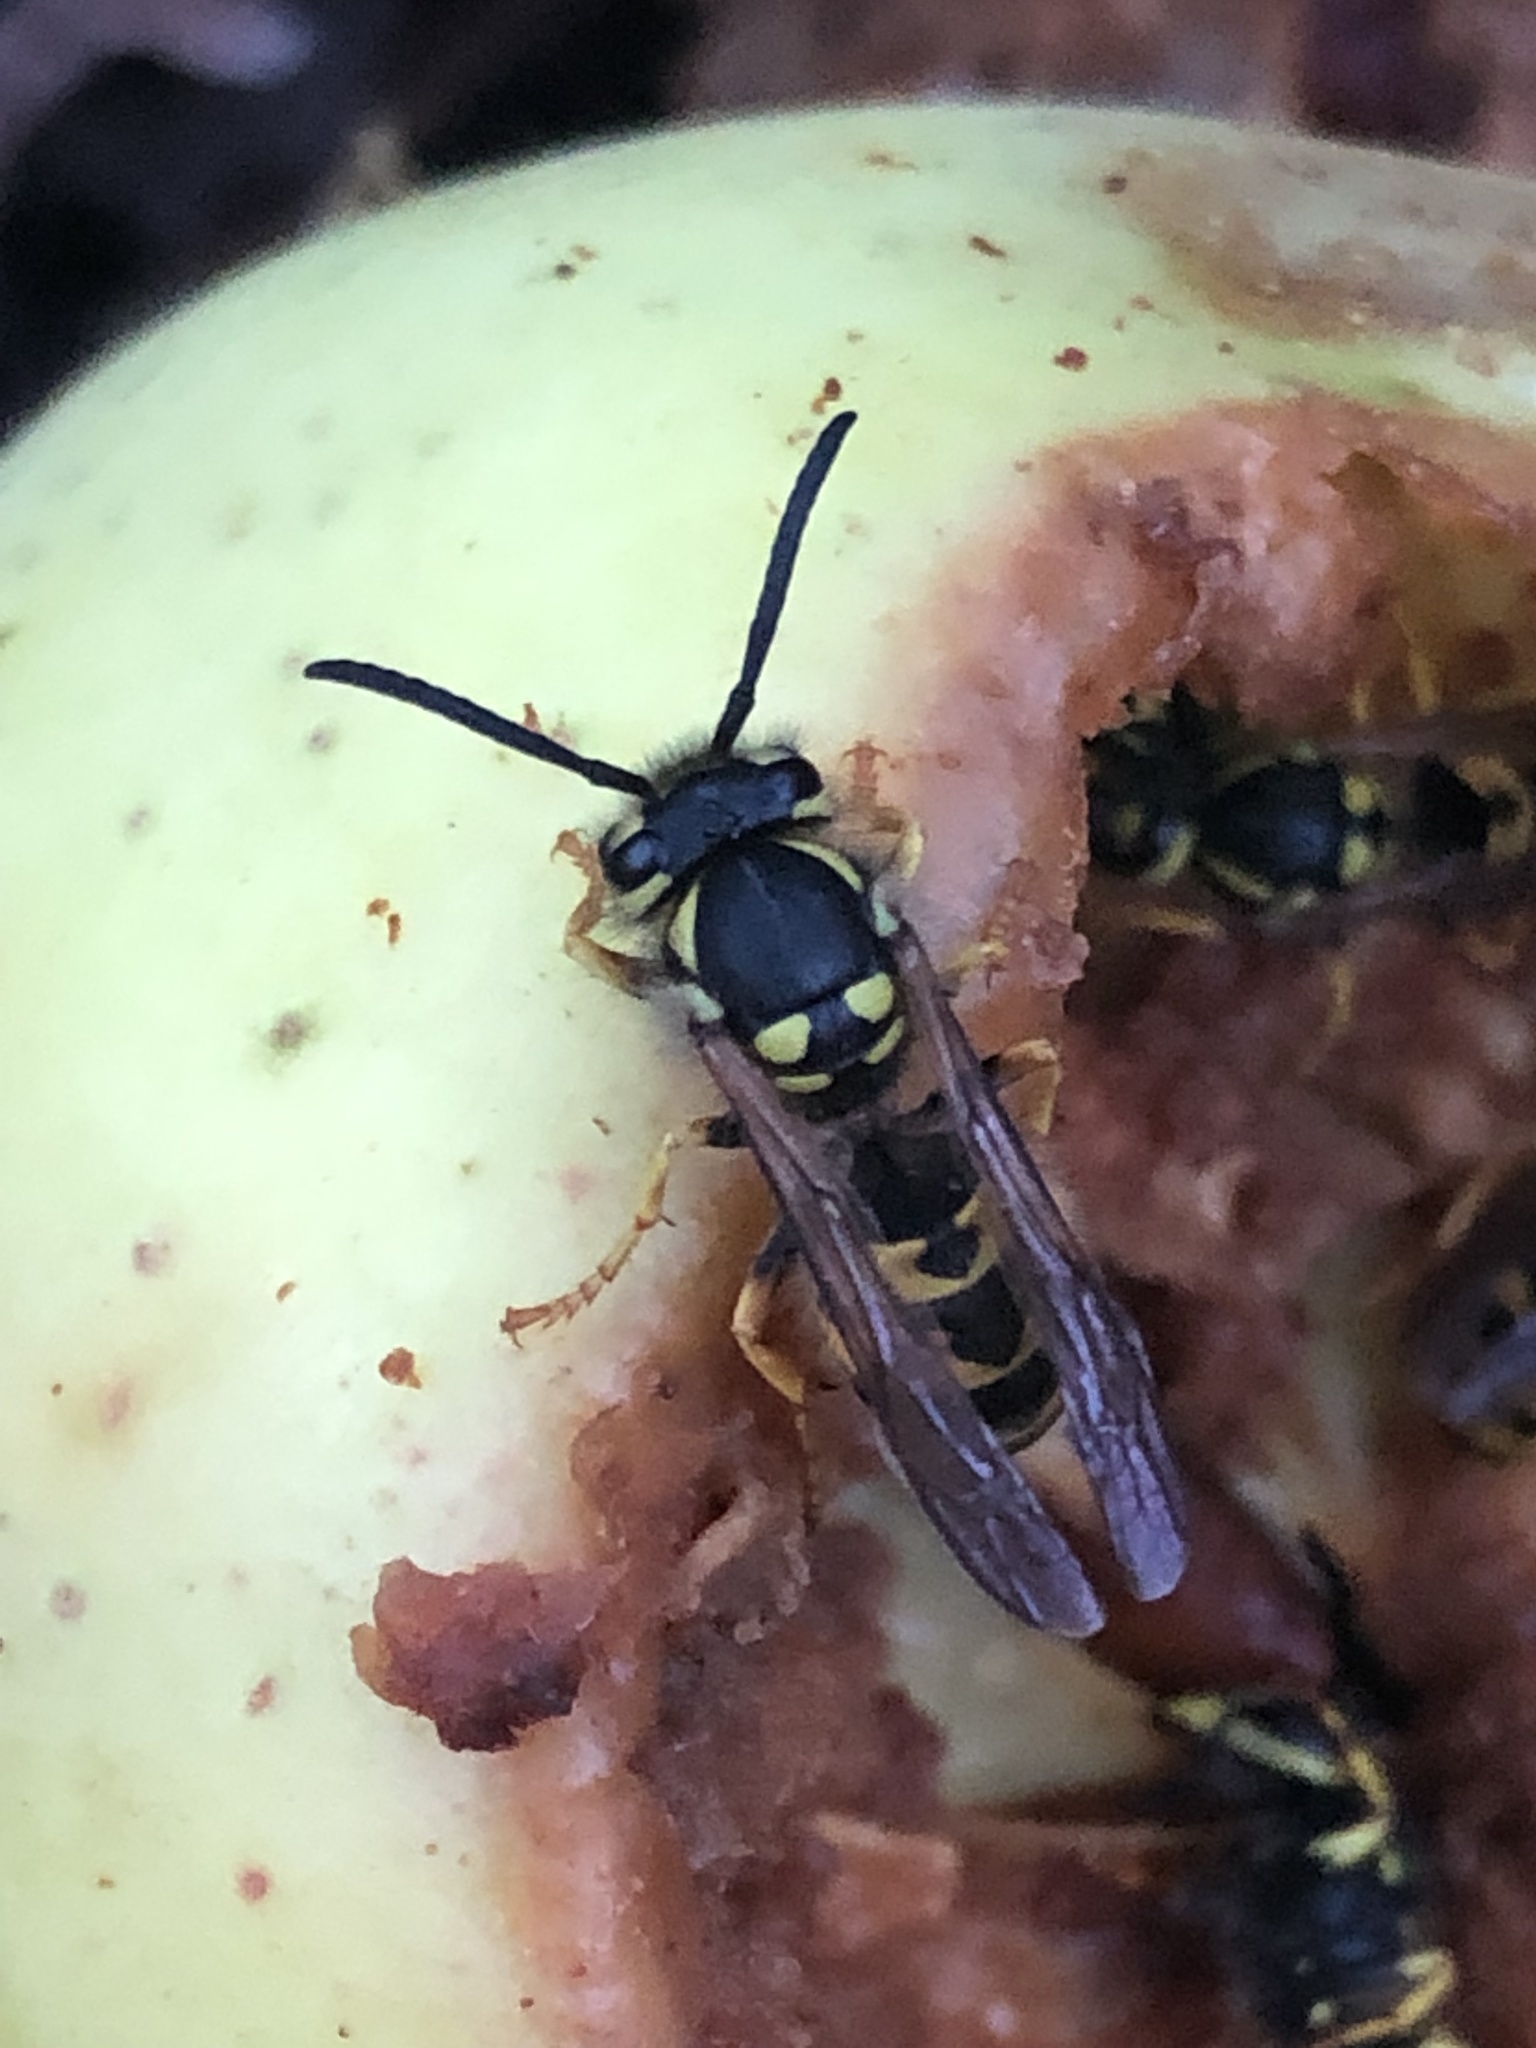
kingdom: Animalia
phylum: Arthropoda
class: Insecta
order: Hymenoptera
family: Vespidae
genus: Vespula
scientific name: Vespula germanica
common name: German wasp
